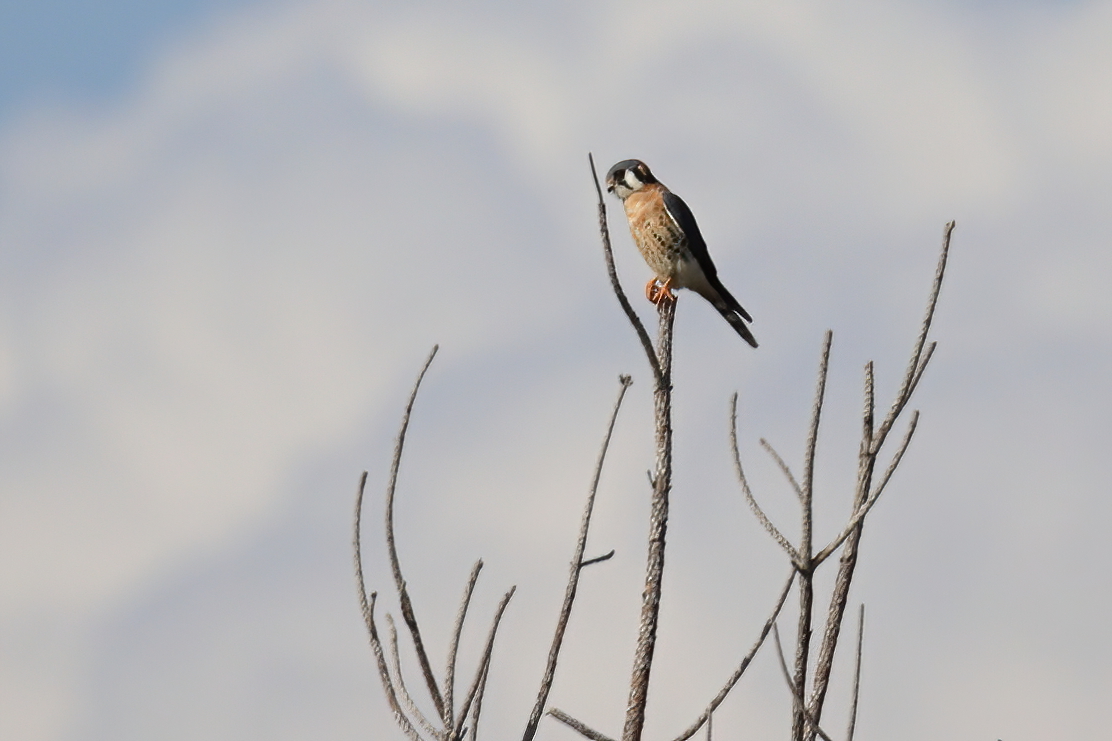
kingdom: Animalia
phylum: Chordata
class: Aves
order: Falconiformes
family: Falconidae
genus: Falco
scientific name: Falco sparverius
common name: American kestrel
